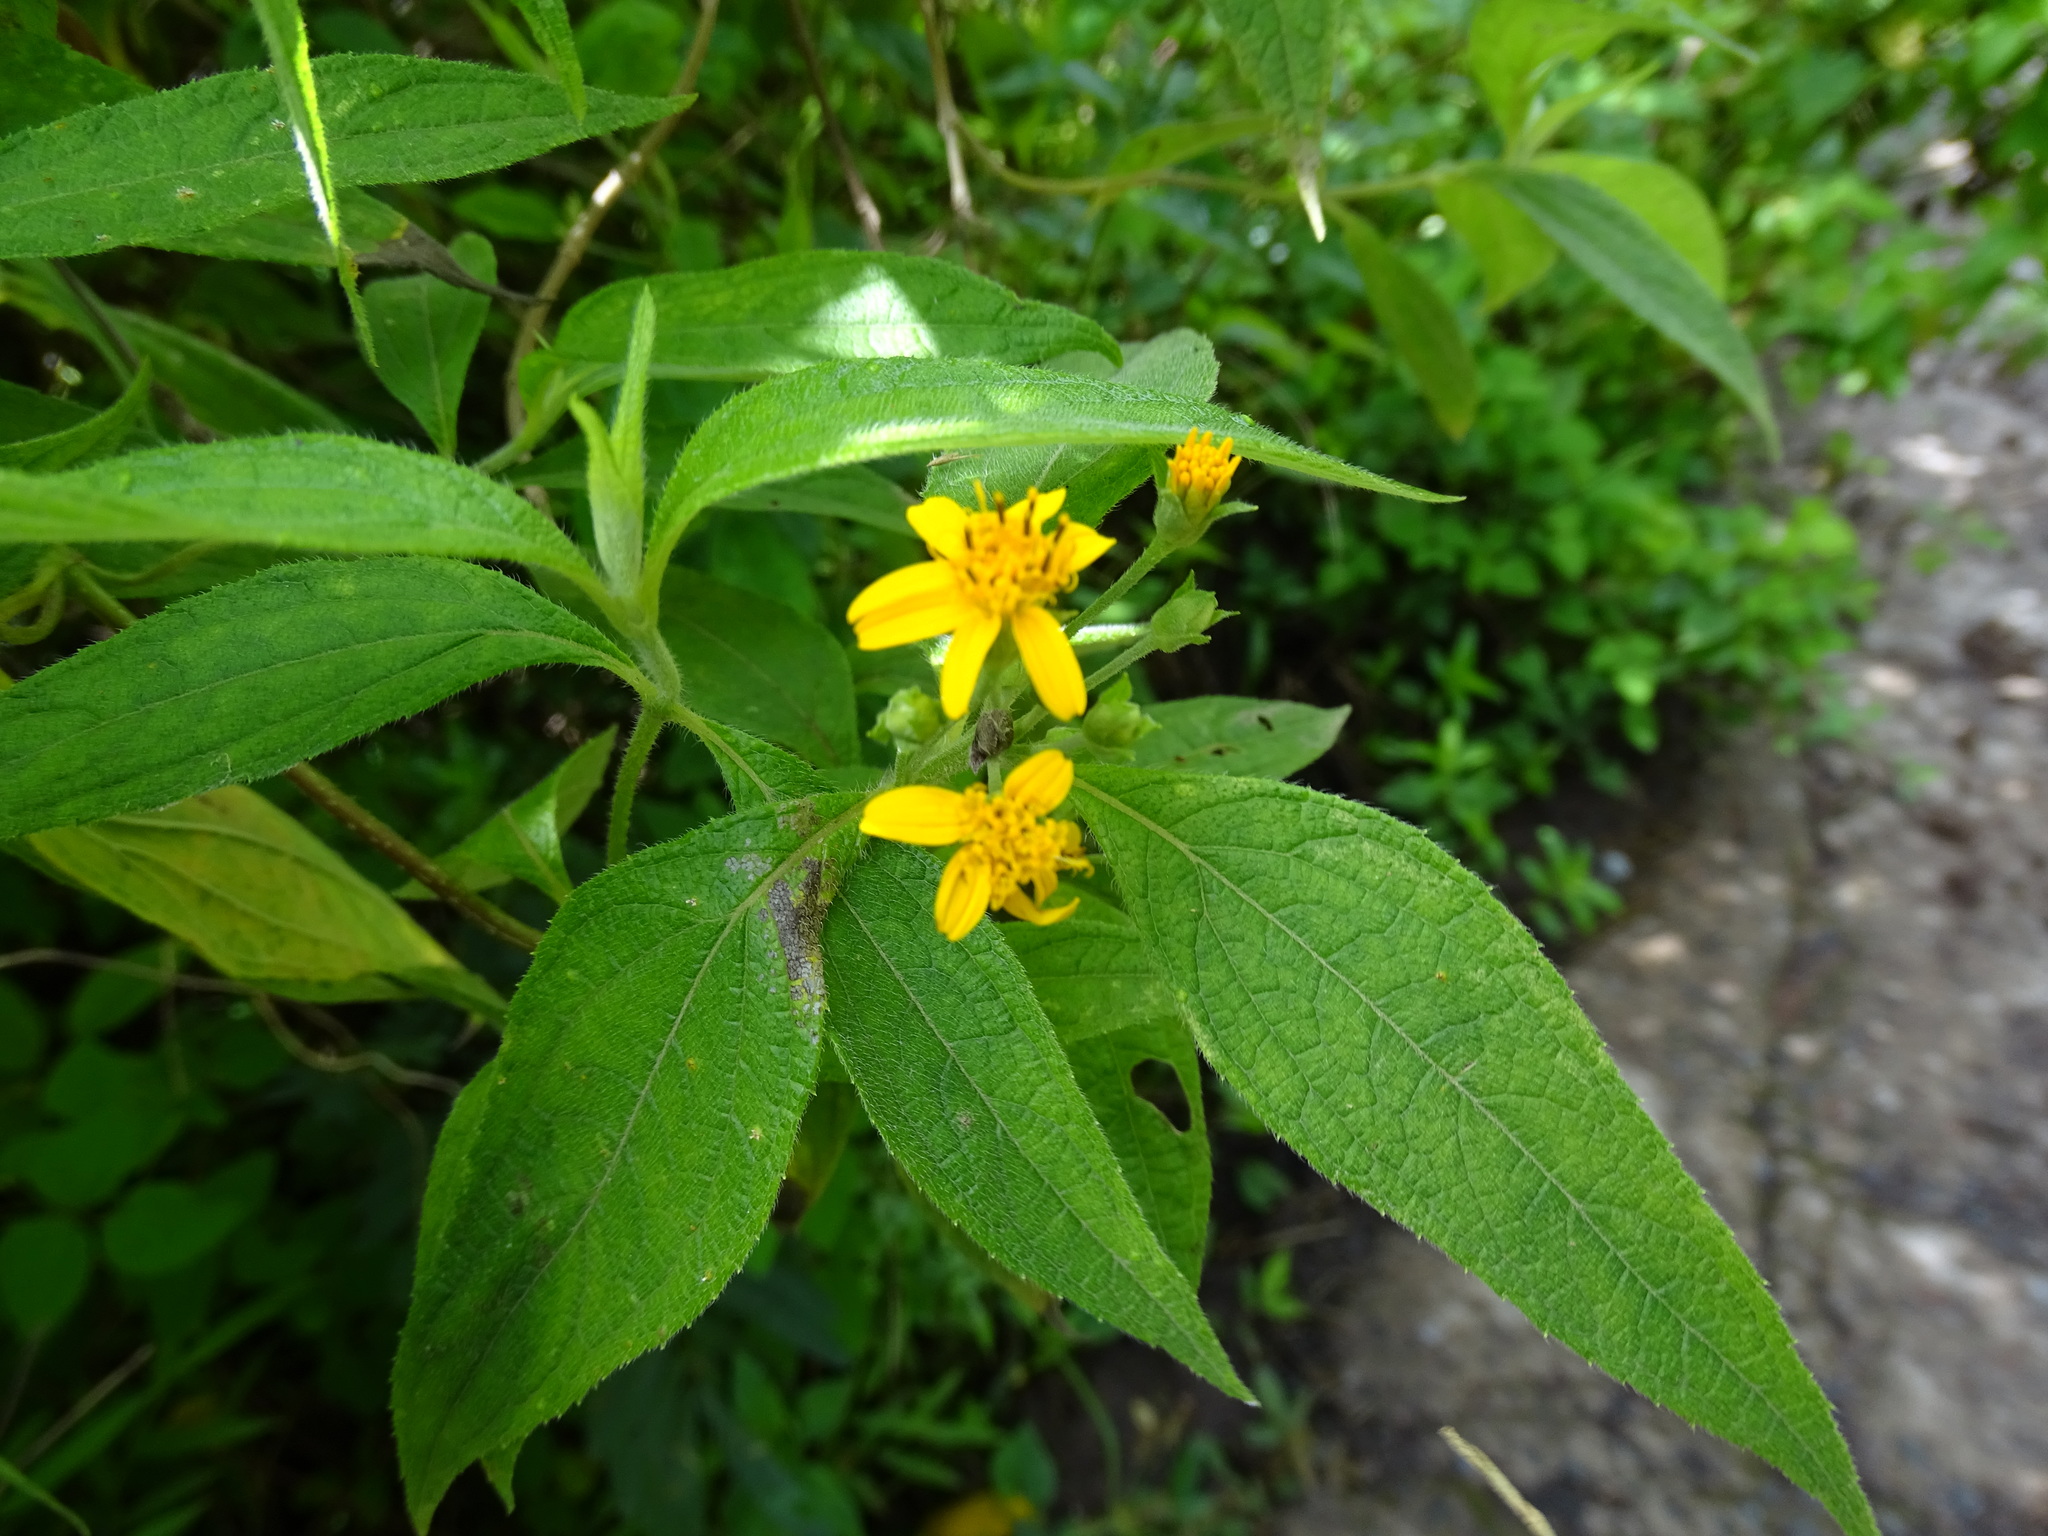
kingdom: Plantae
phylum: Tracheophyta
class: Magnoliopsida
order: Asterales
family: Asteraceae
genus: Lasianthaea
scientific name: Lasianthaea fruticosa
